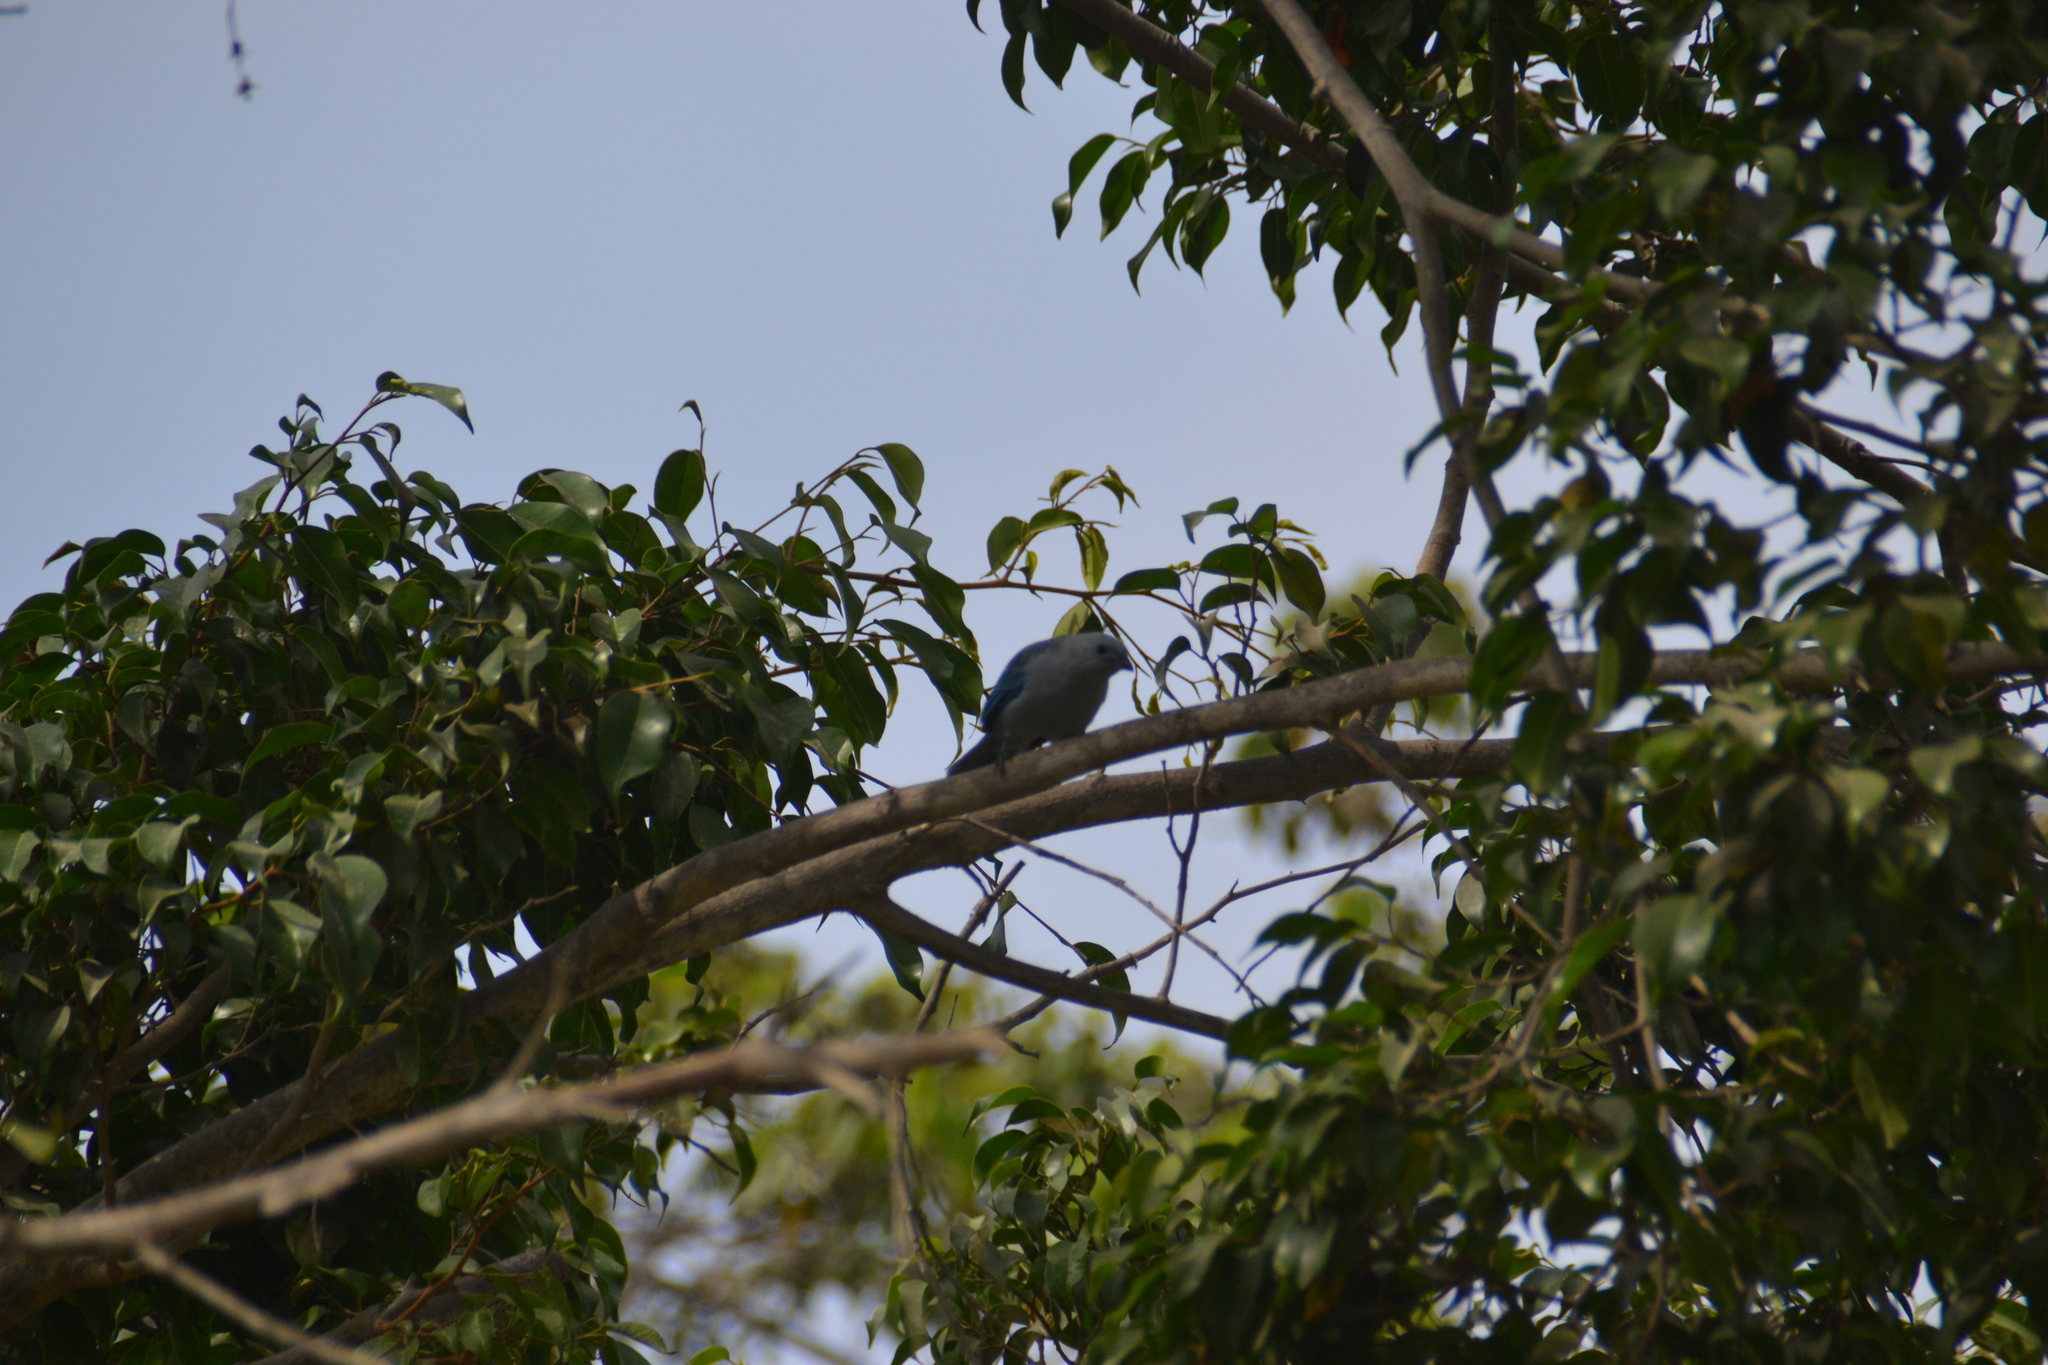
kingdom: Animalia
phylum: Chordata
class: Aves
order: Passeriformes
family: Thraupidae
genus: Thraupis
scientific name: Thraupis episcopus
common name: Blue-grey tanager
